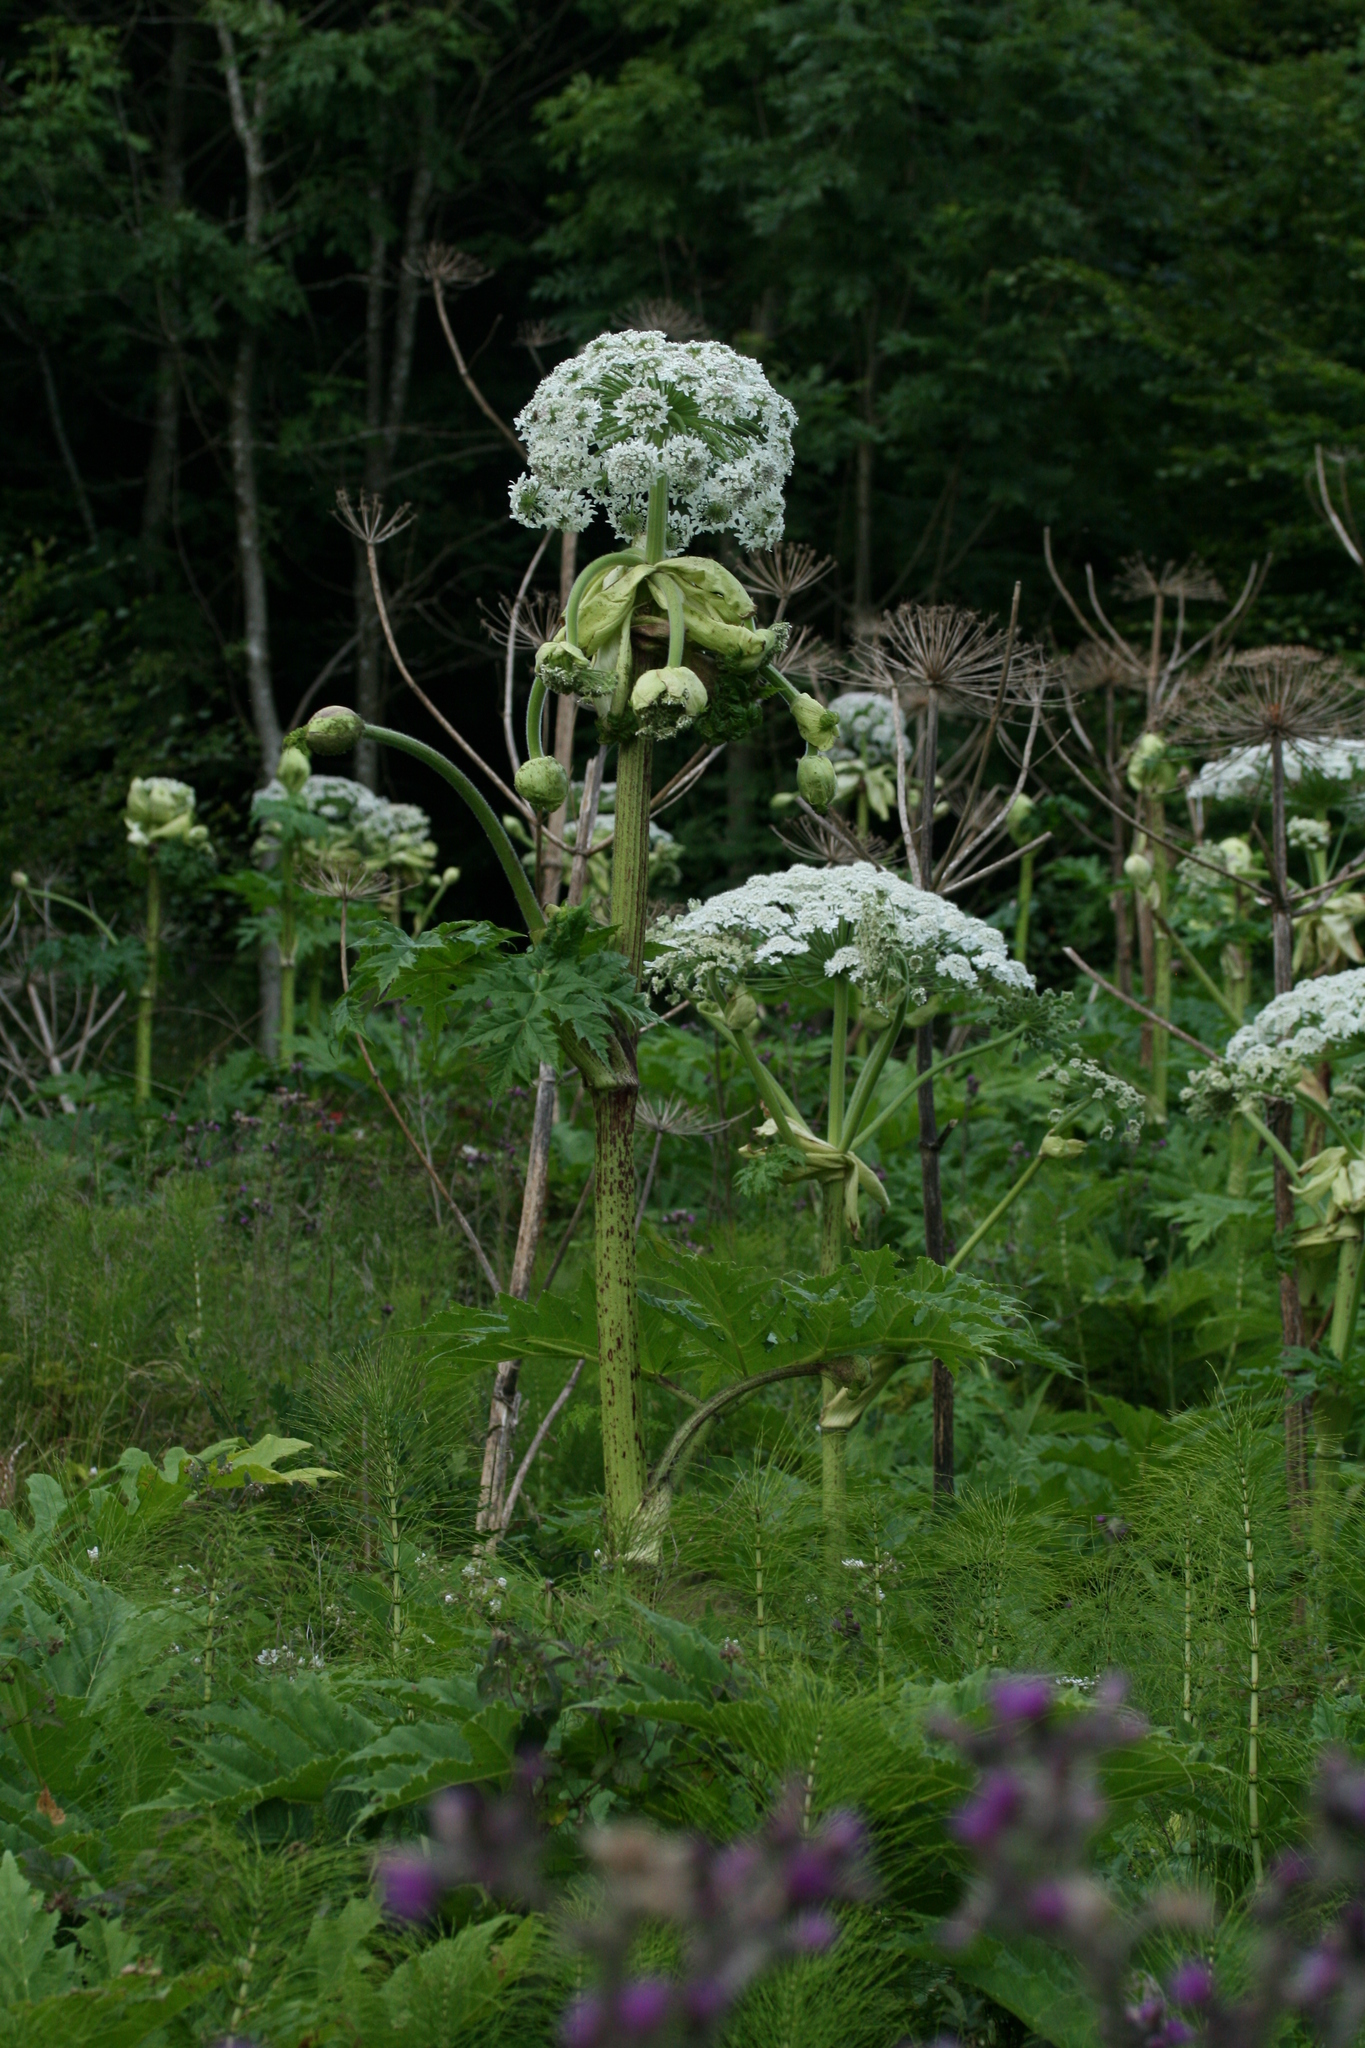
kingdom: Plantae
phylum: Tracheophyta
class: Magnoliopsida
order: Apiales
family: Apiaceae
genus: Heracleum
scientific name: Heracleum mantegazzianum
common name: Giant hogweed
